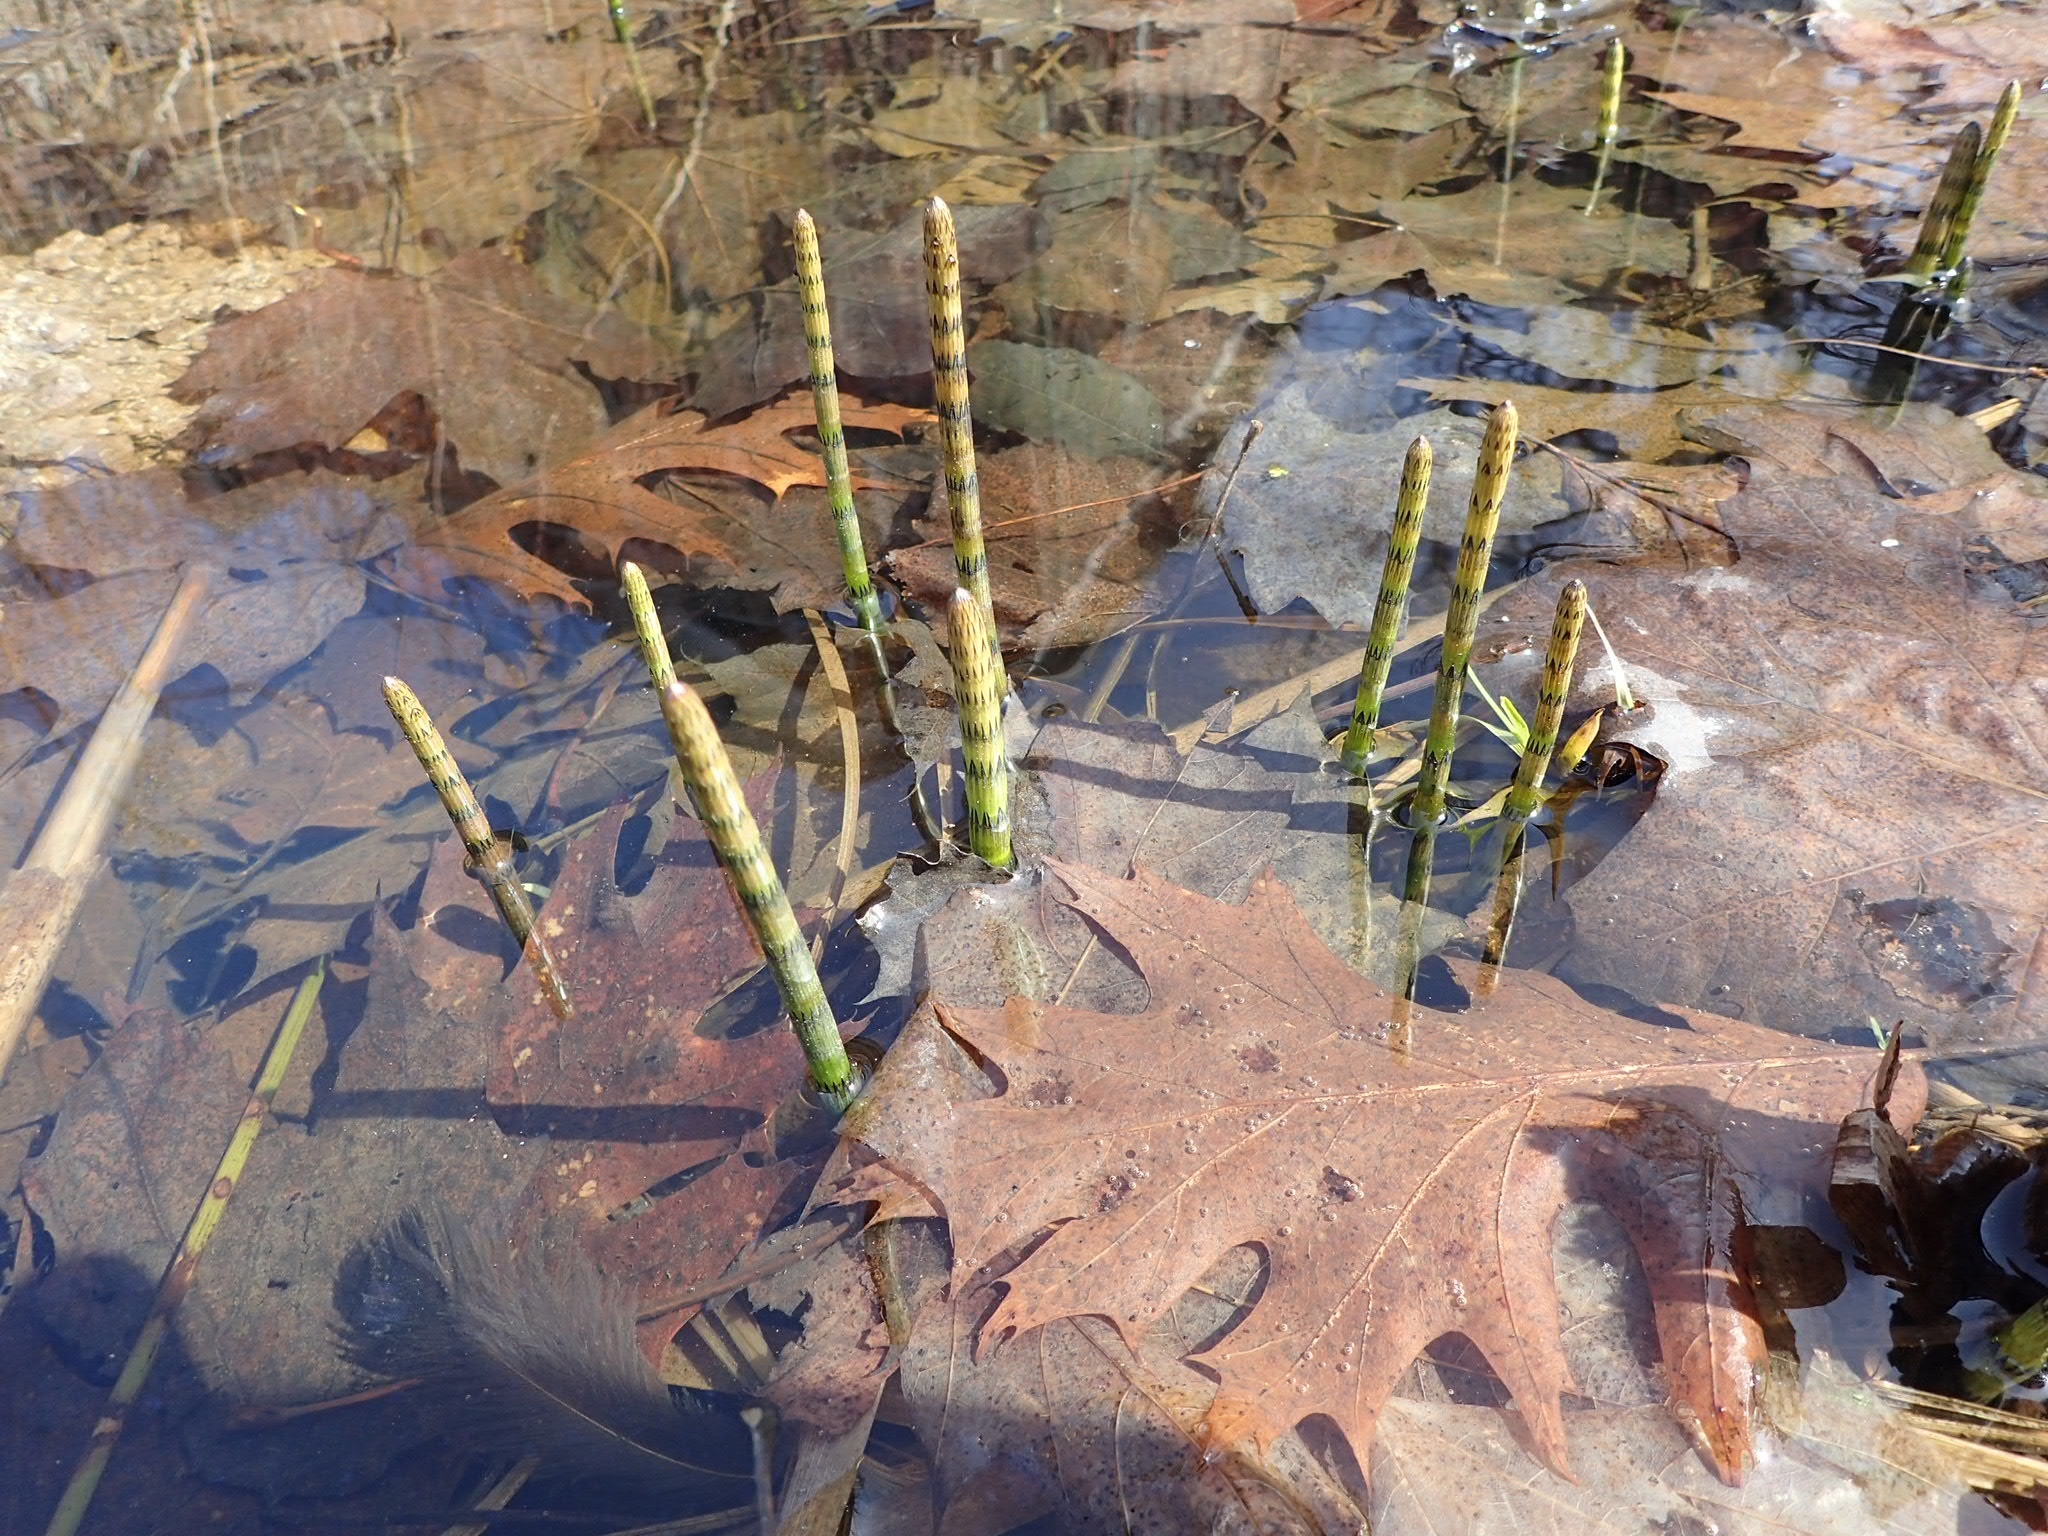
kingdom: Plantae
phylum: Tracheophyta
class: Polypodiopsida
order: Equisetales
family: Equisetaceae
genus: Equisetum
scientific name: Equisetum fluviatile
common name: Water horsetail
